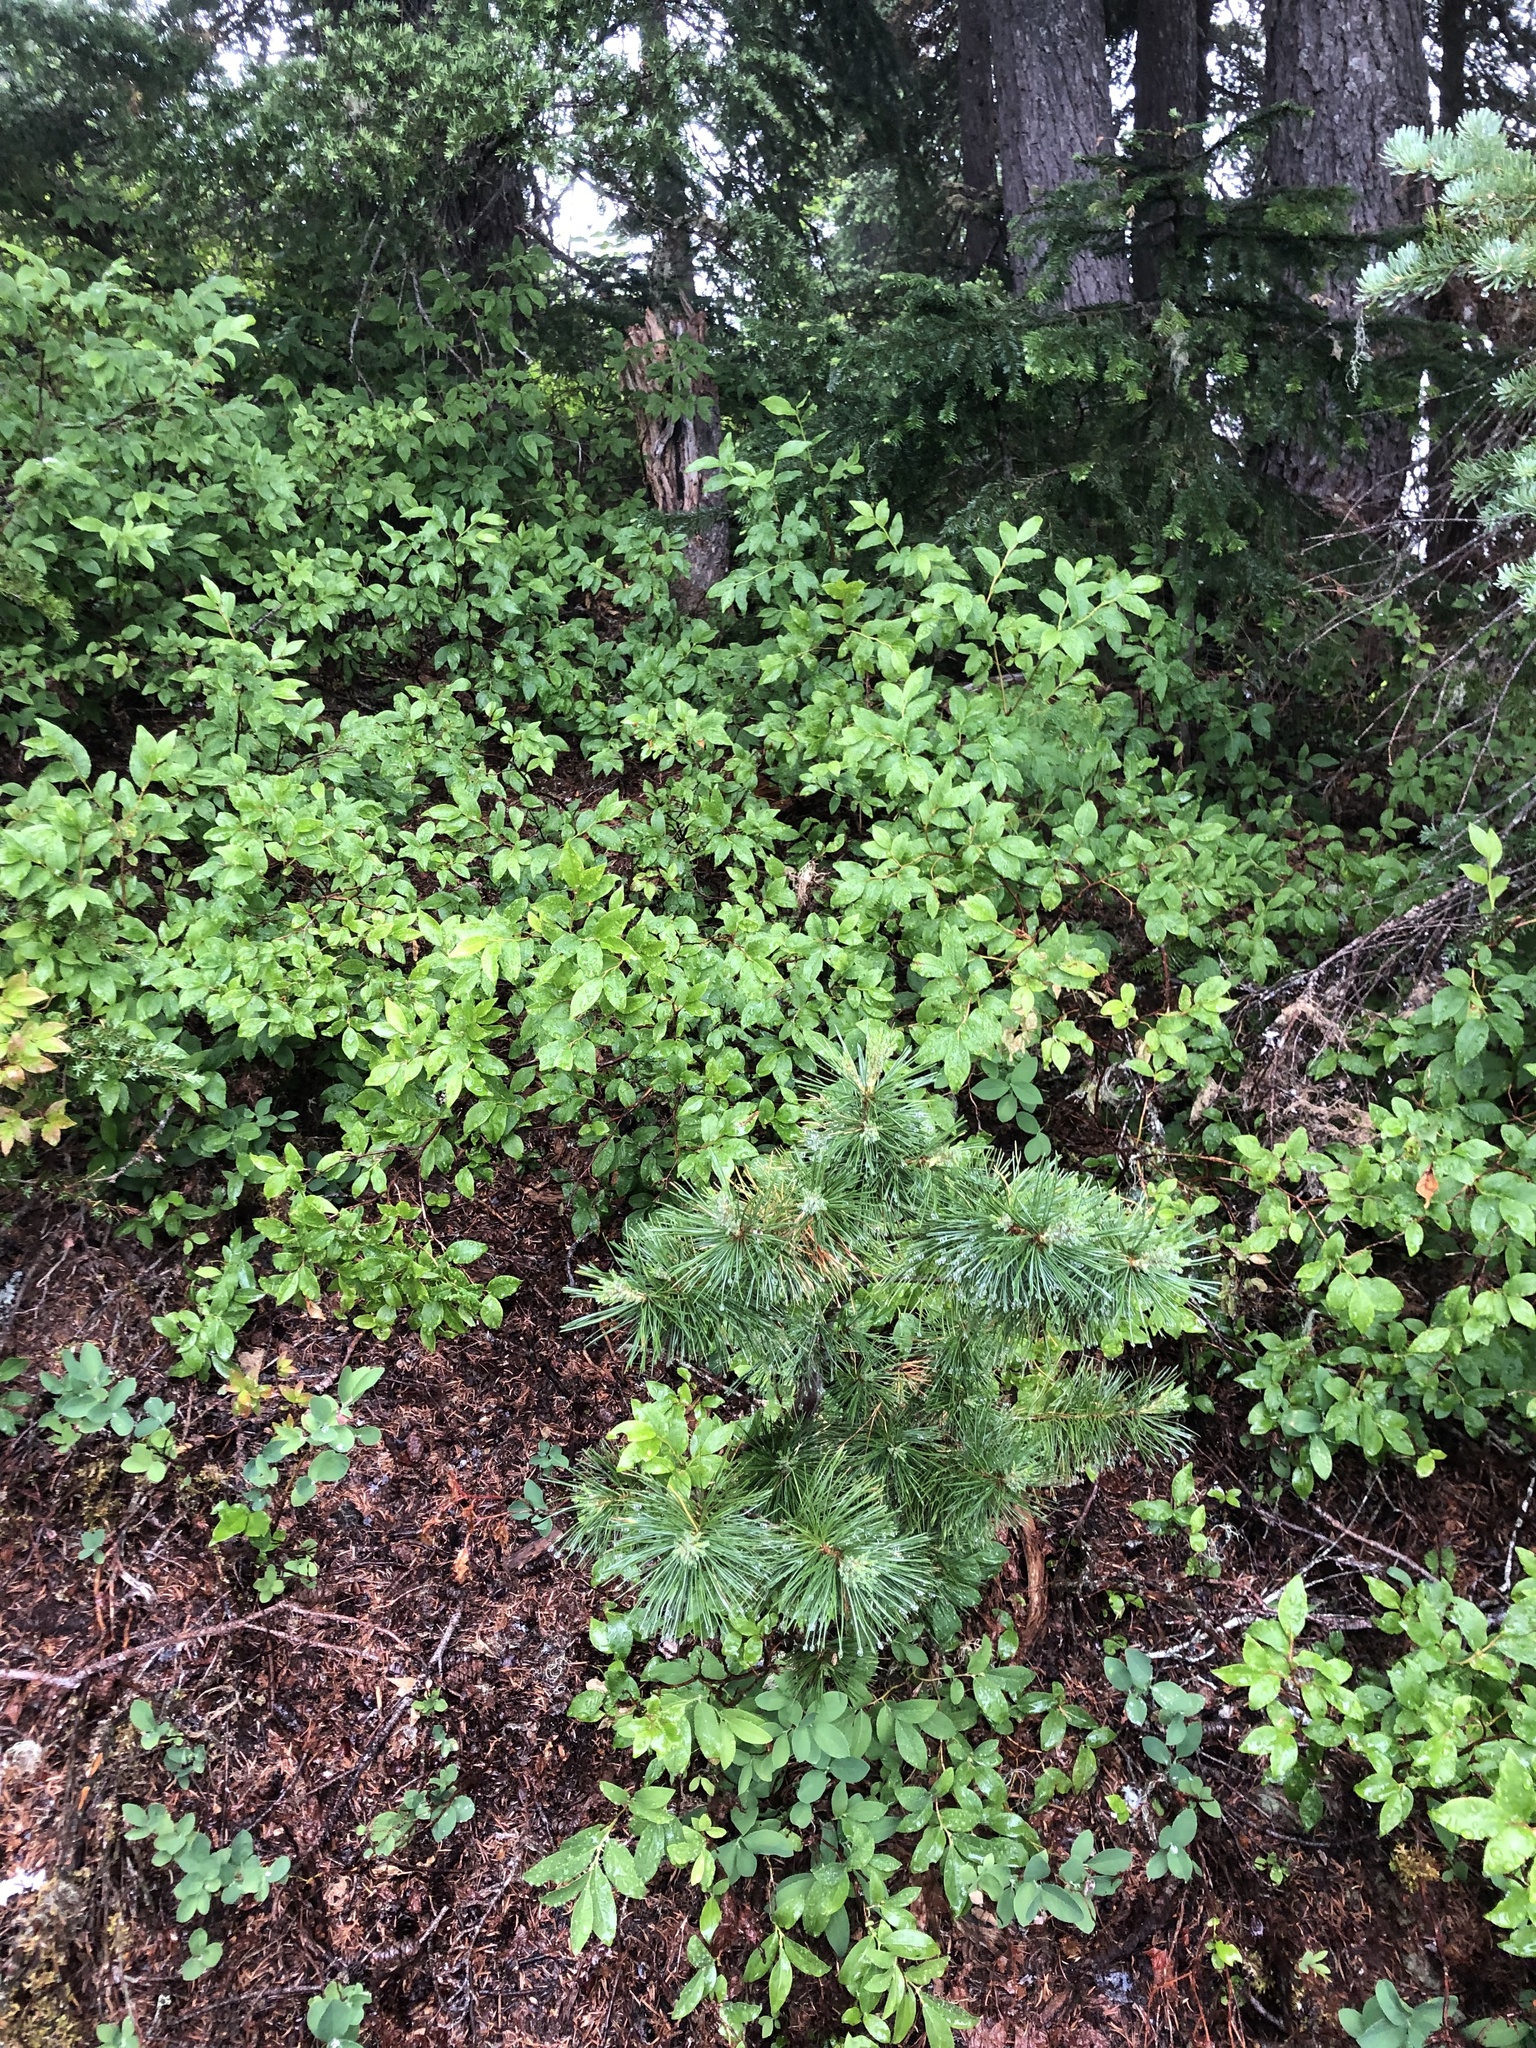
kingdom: Plantae
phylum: Tracheophyta
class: Pinopsida
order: Pinales
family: Pinaceae
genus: Pinus
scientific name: Pinus monticola
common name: Western white pine
